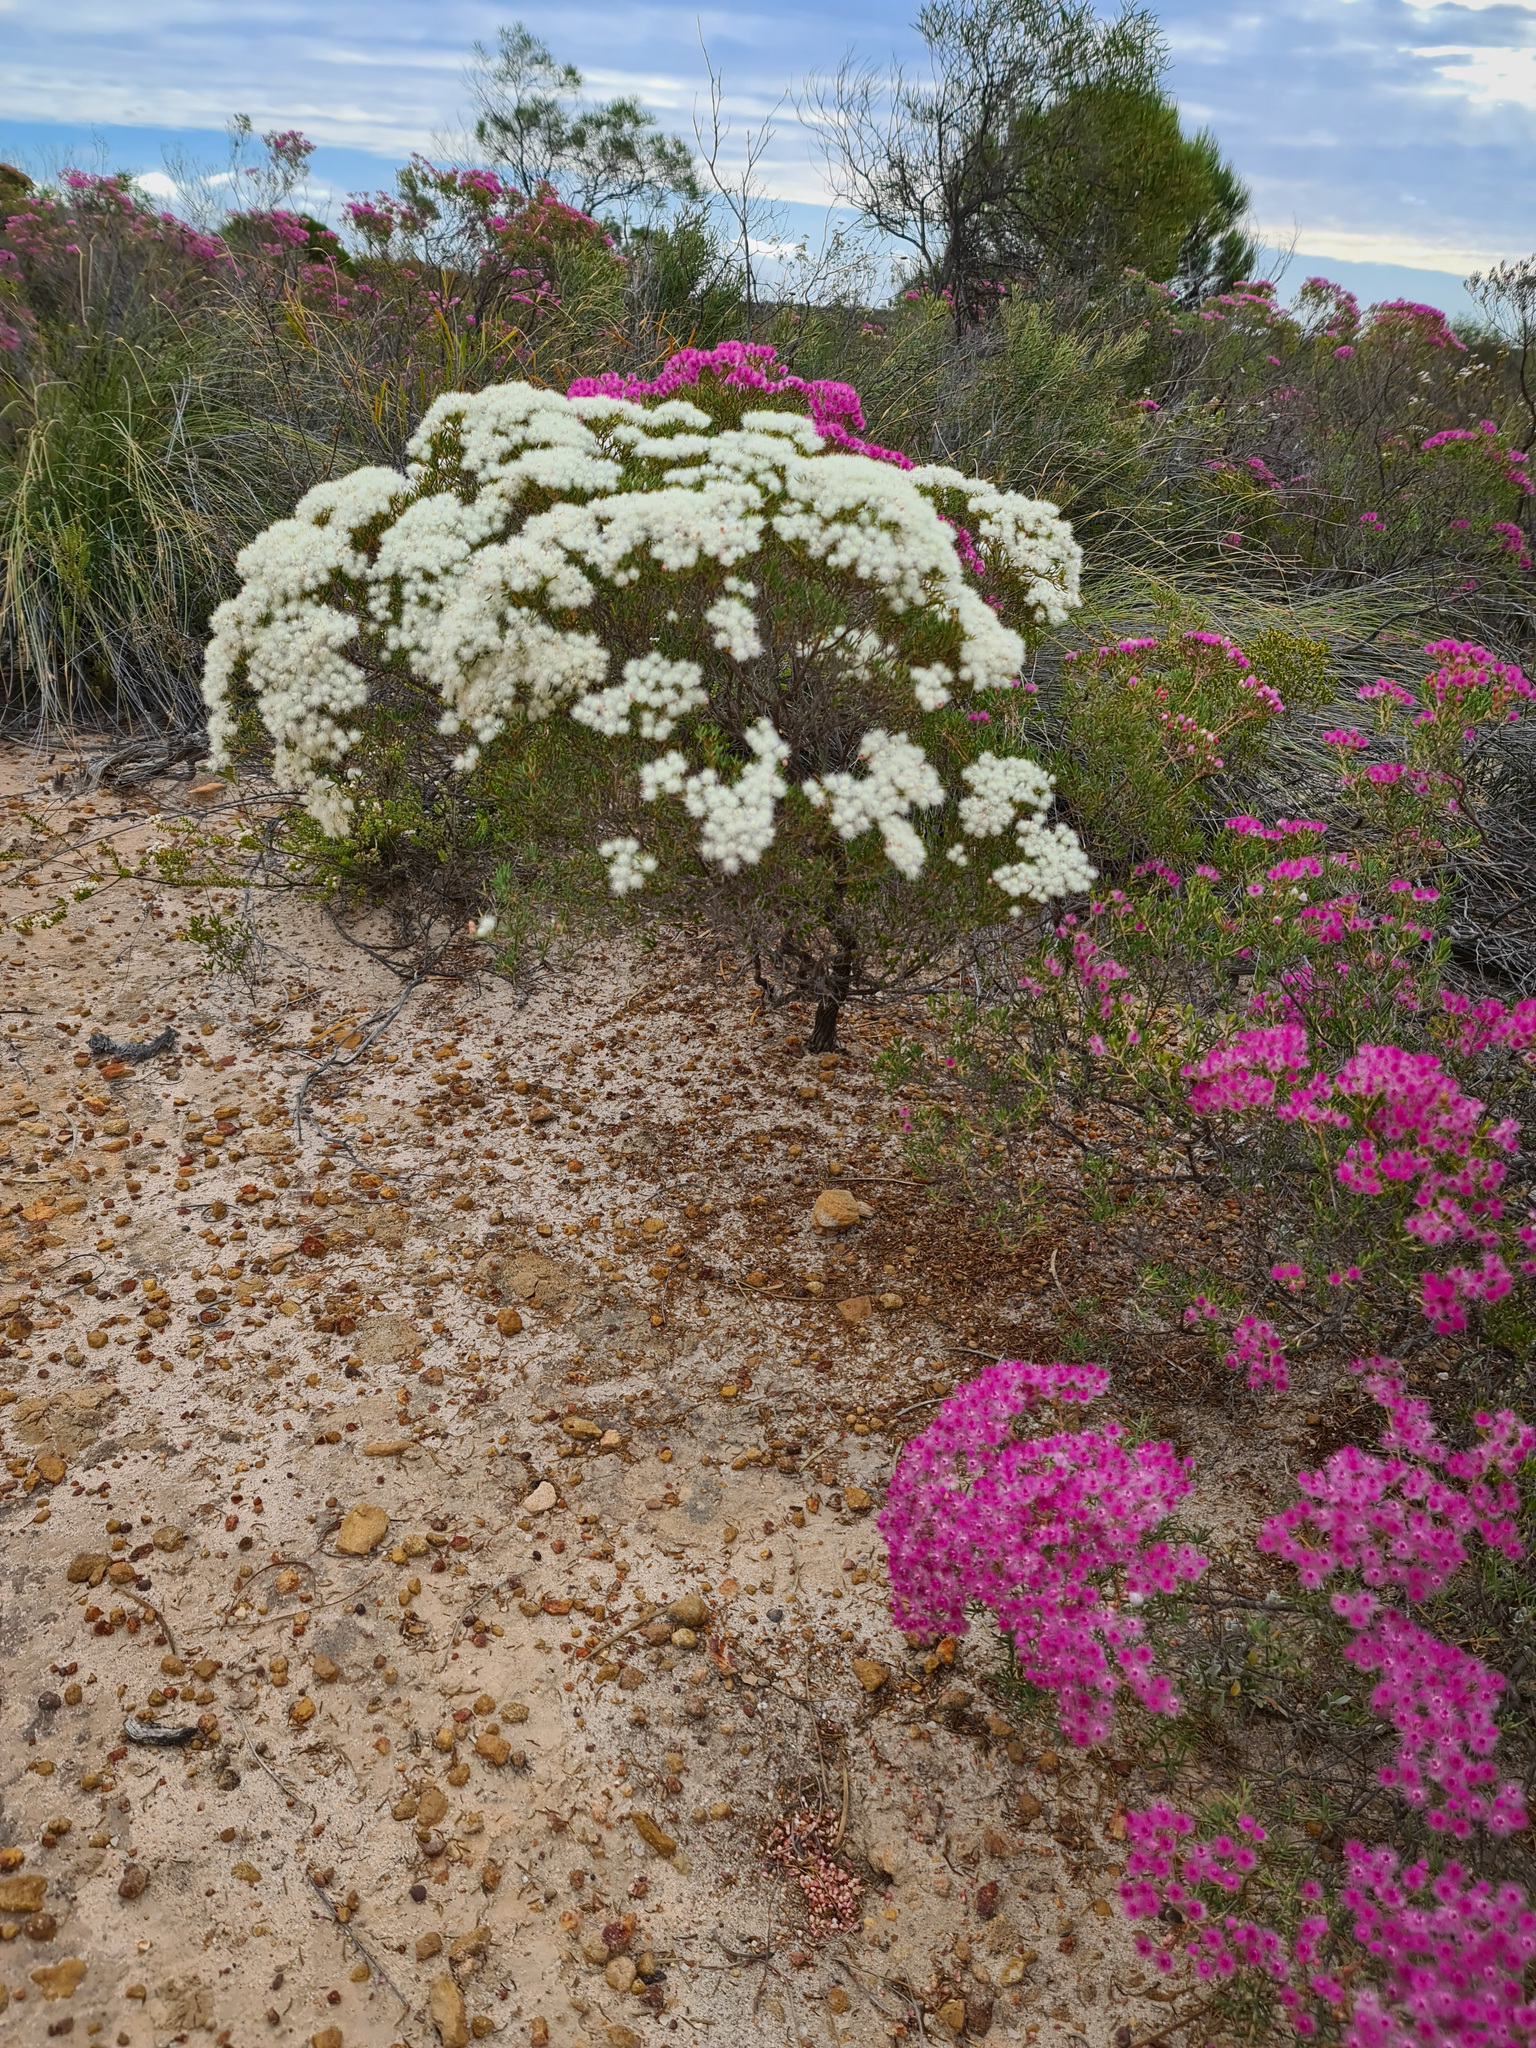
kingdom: Plantae
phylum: Tracheophyta
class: Magnoliopsida
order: Myrtales
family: Myrtaceae
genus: Verticordia
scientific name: Verticordia monadelpha
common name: Woolly feather-flower
